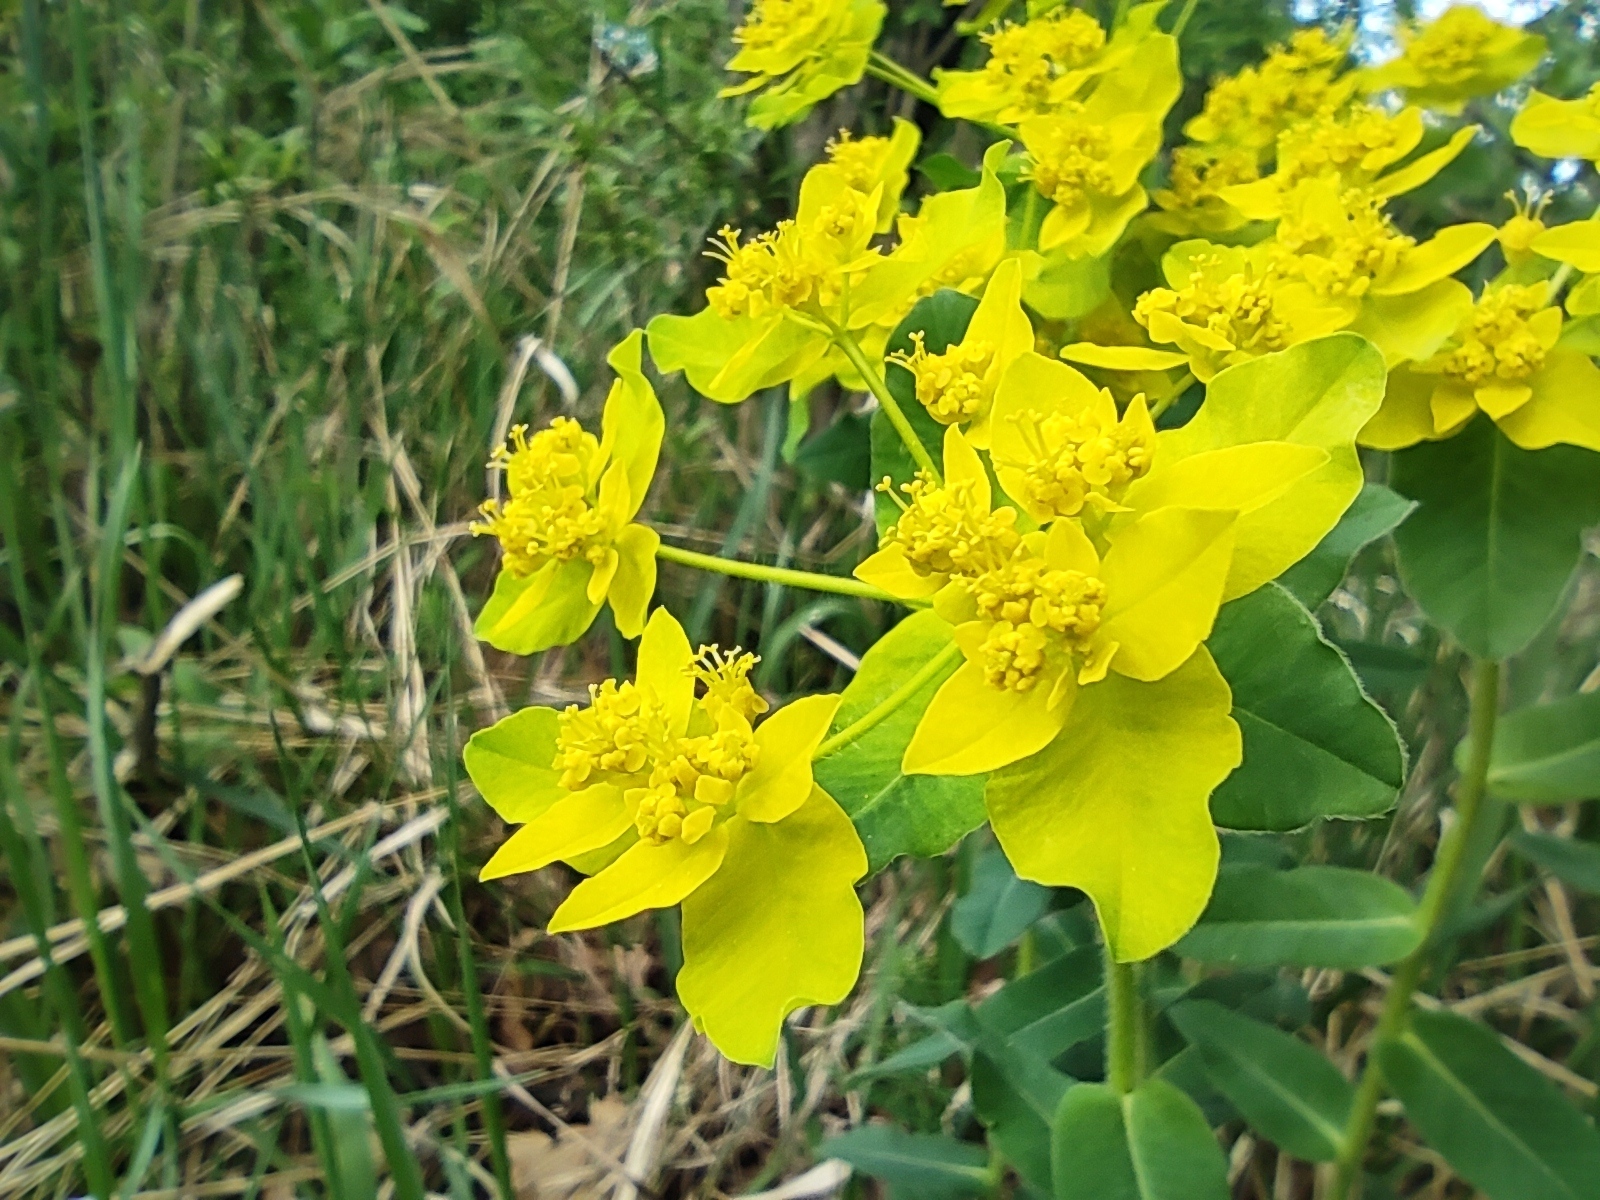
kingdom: Plantae
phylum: Tracheophyta
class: Magnoliopsida
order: Malpighiales
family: Euphorbiaceae
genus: Euphorbia
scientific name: Euphorbia epithymoides
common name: Cushion spurge
